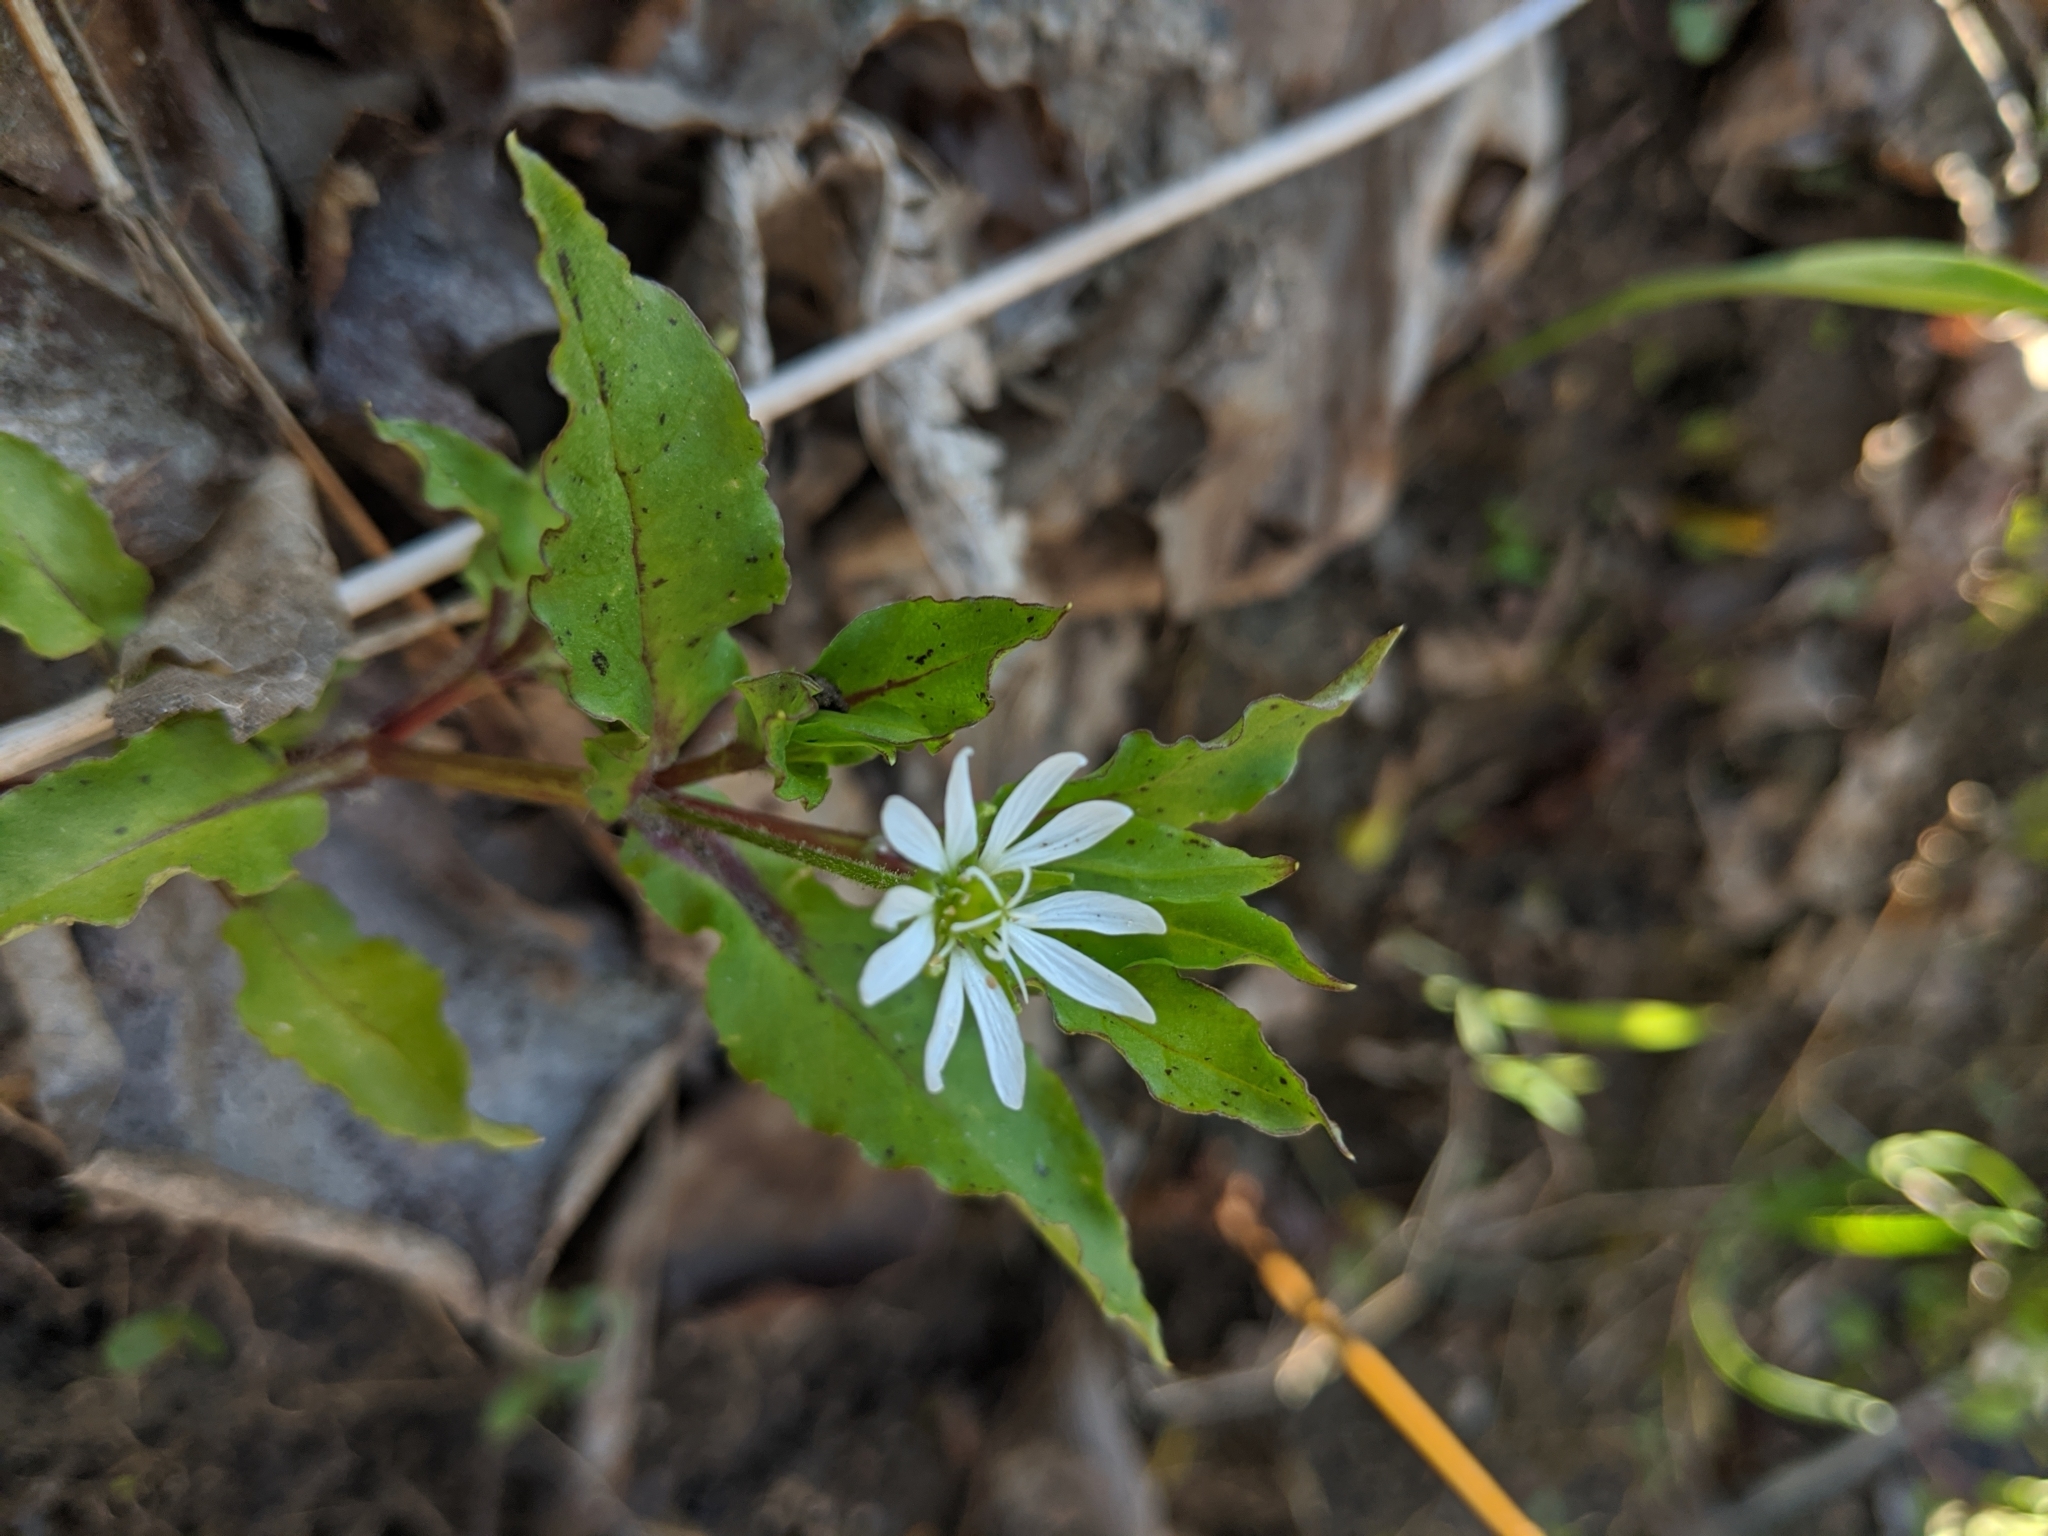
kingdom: Plantae
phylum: Tracheophyta
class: Magnoliopsida
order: Caryophyllales
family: Caryophyllaceae
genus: Stellaria
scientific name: Stellaria aquatica
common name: Water chickweed
